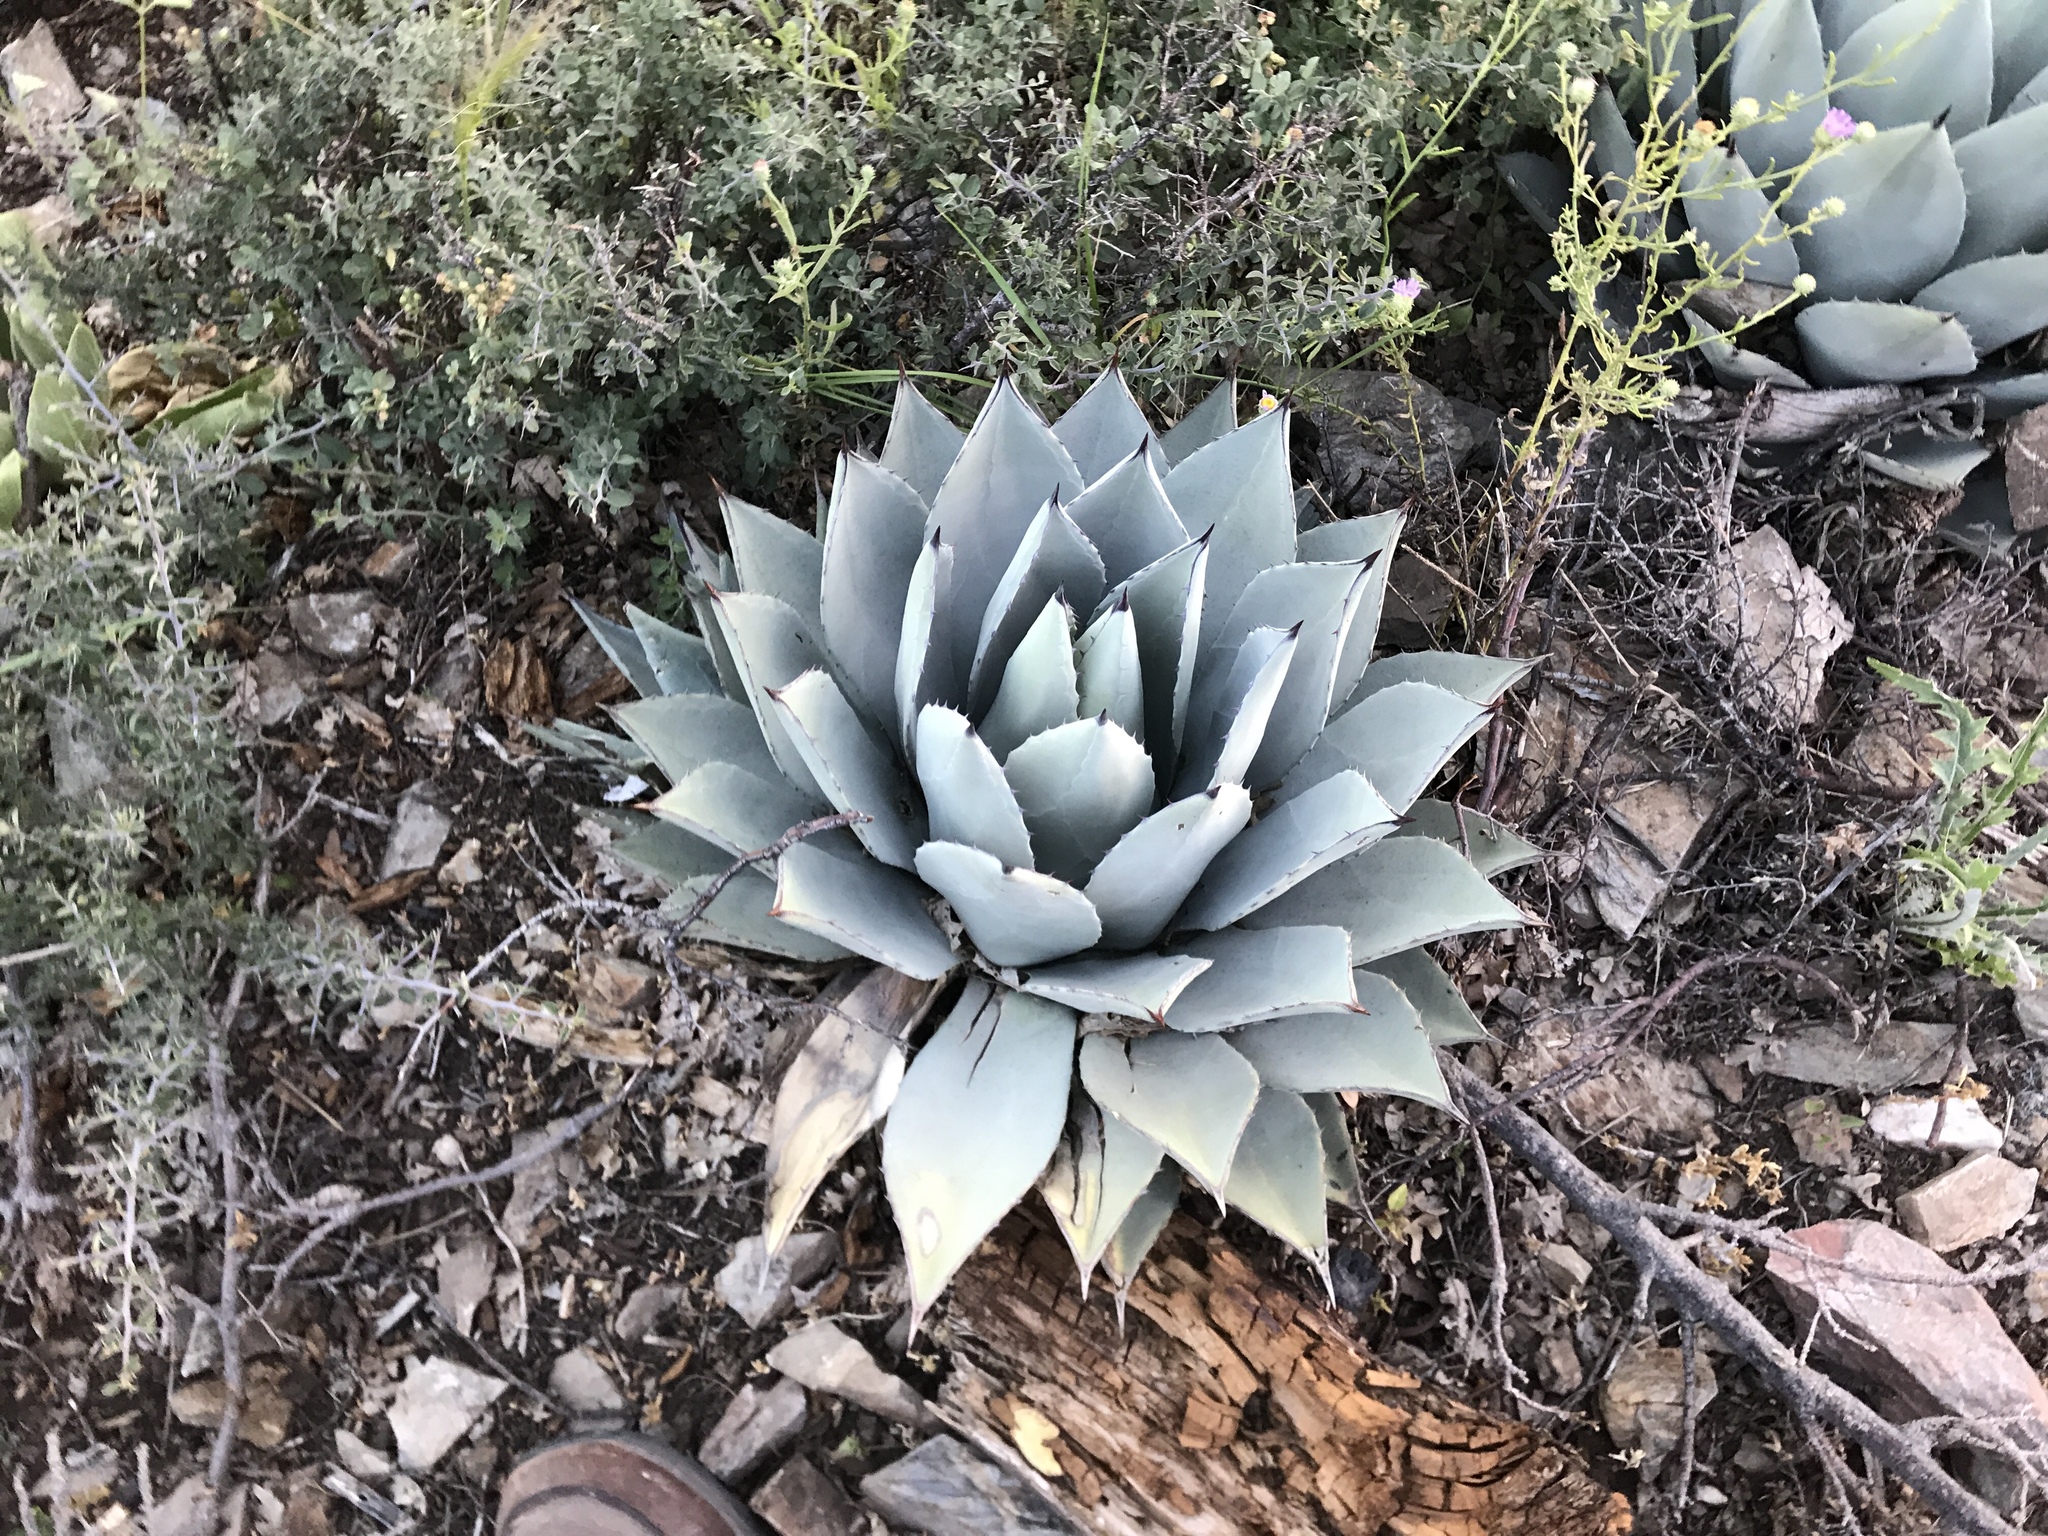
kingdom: Plantae
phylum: Tracheophyta
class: Liliopsida
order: Asparagales
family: Asparagaceae
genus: Agave
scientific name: Agave parryi
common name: Parry's agave
